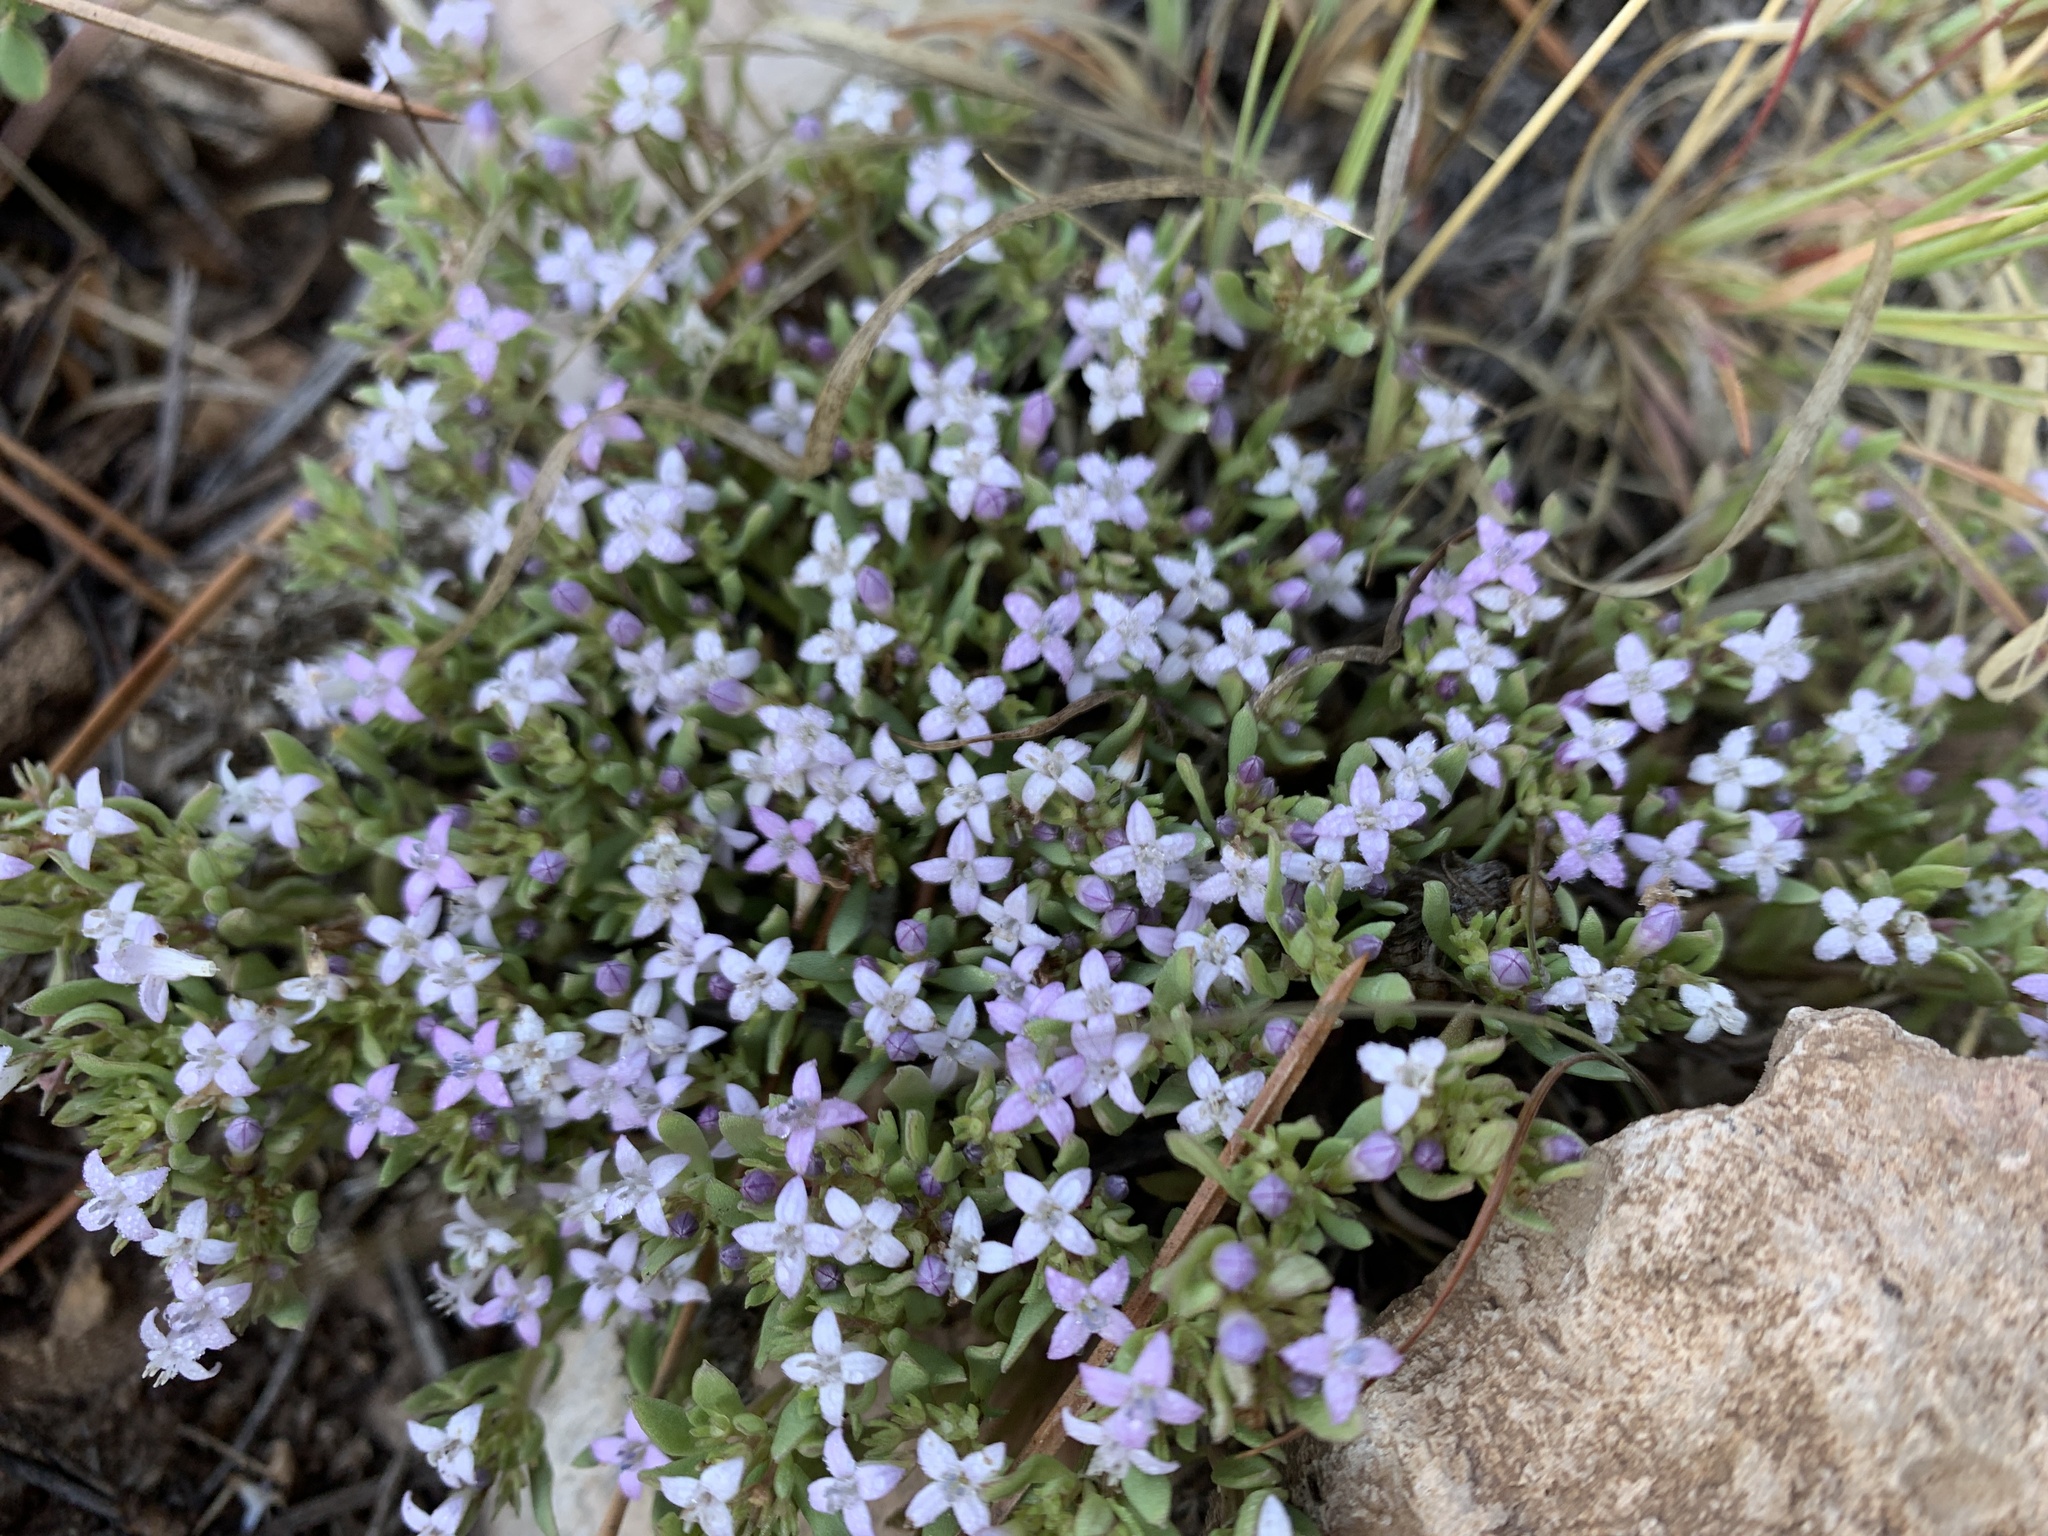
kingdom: Plantae
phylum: Tracheophyta
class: Magnoliopsida
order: Gentianales
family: Rubiaceae
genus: Houstonia
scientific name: Houstonia wrightii
